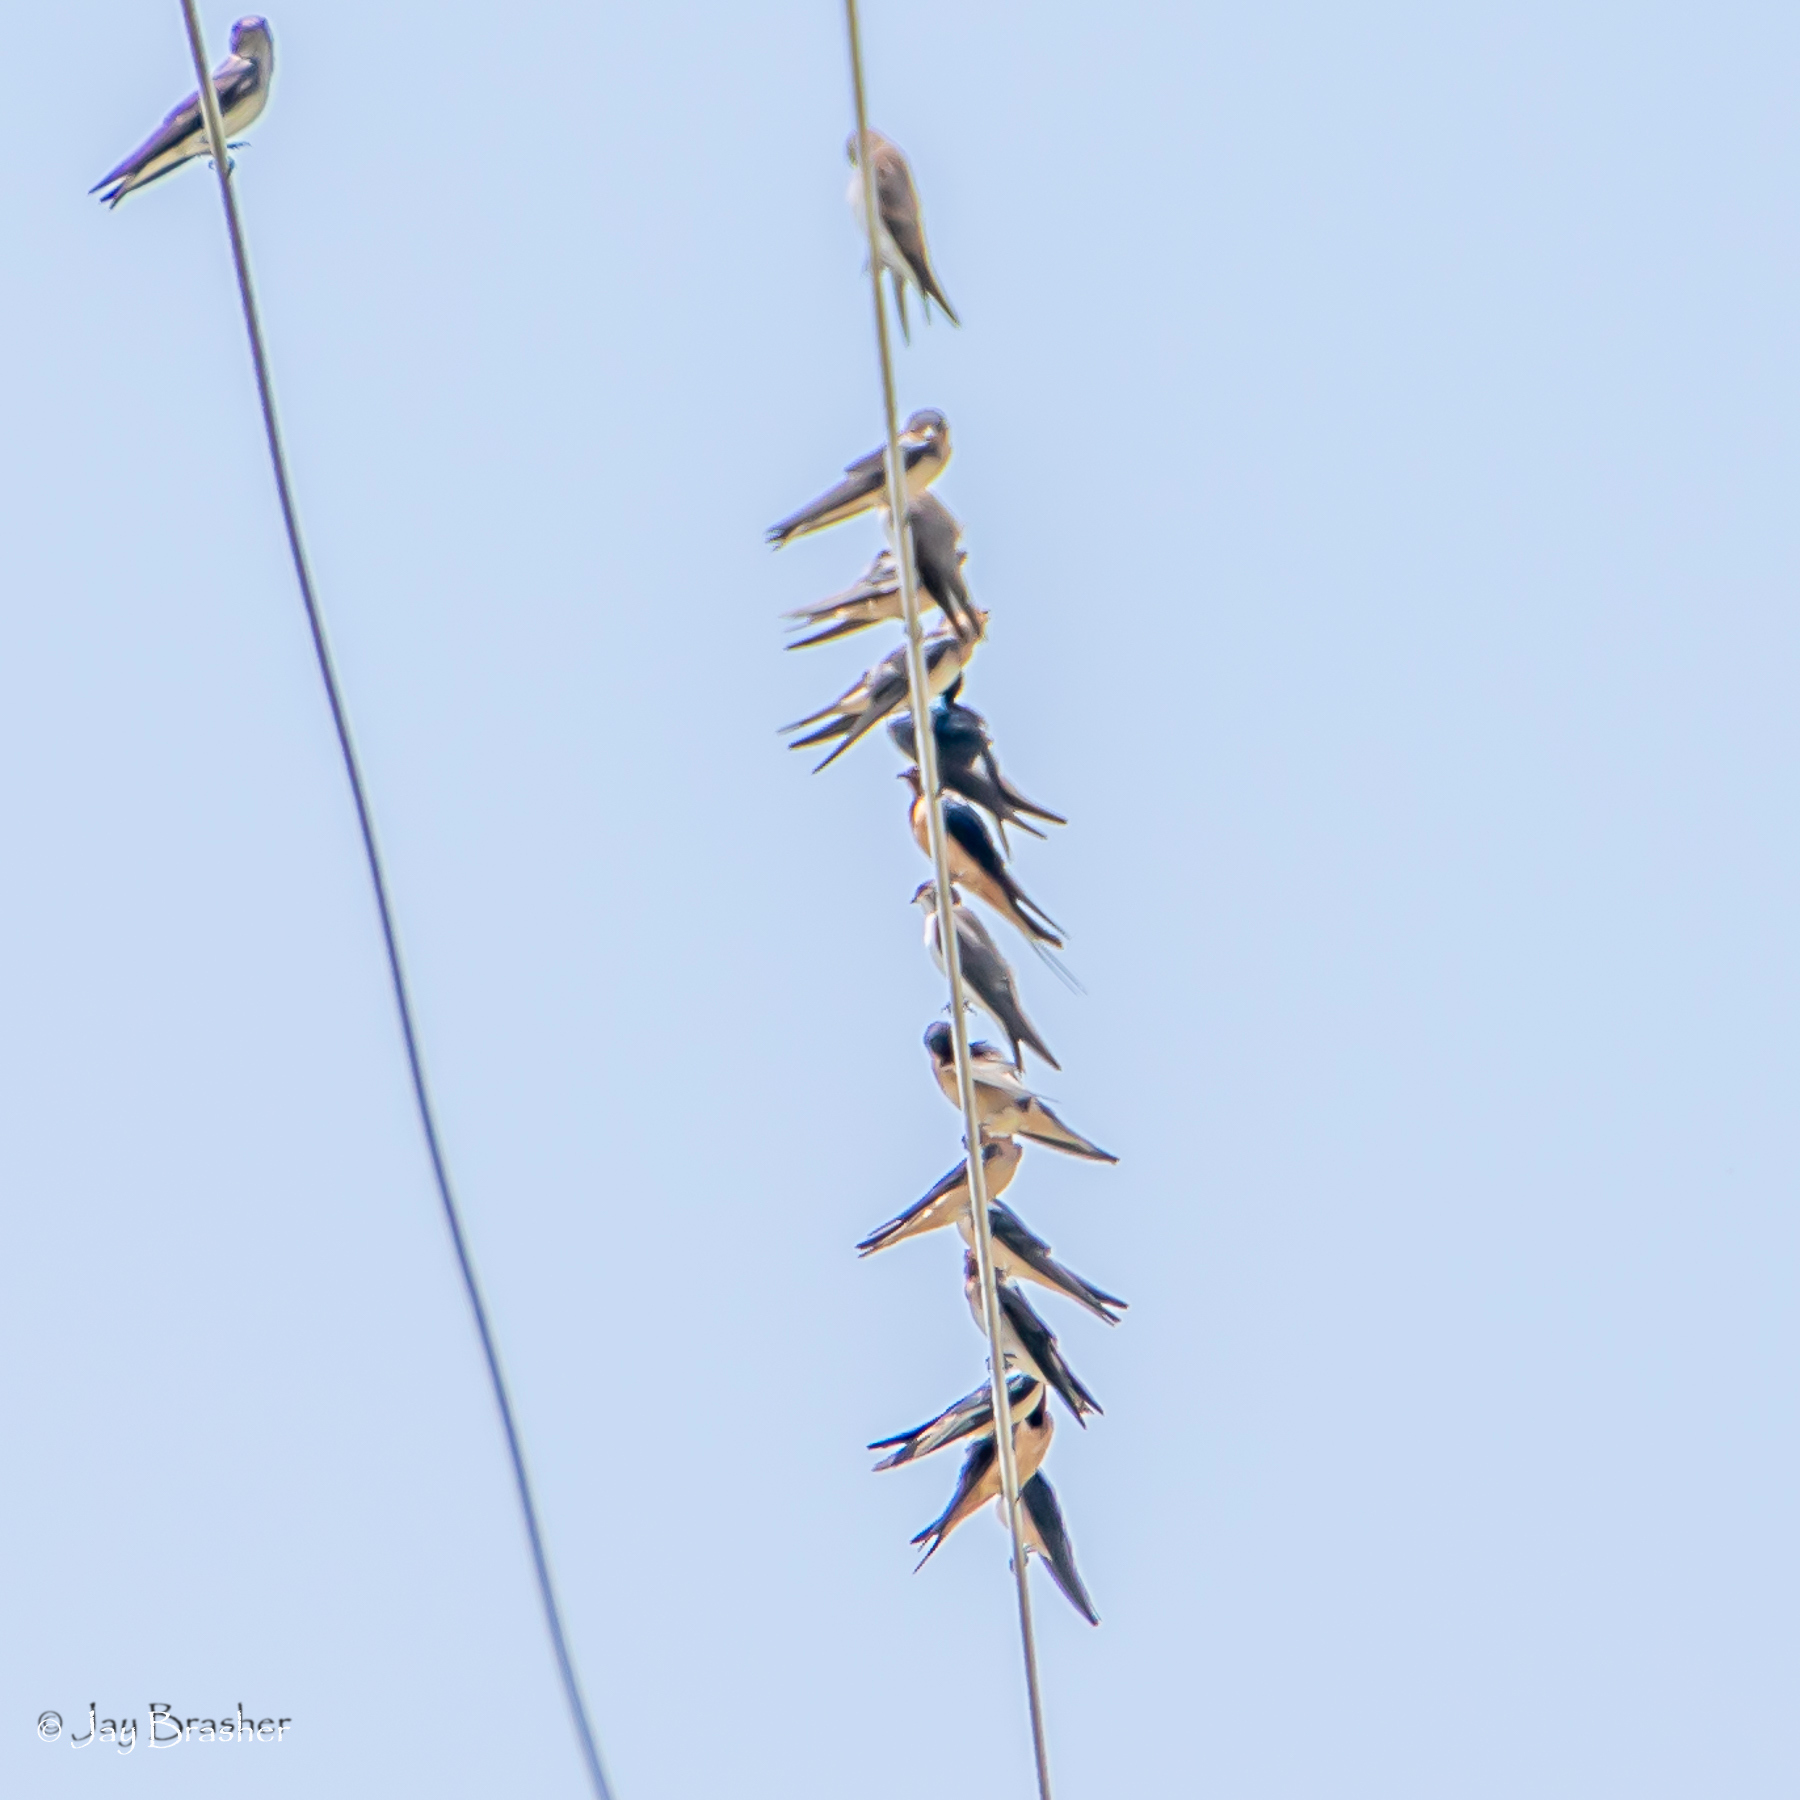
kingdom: Animalia
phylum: Chordata
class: Aves
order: Passeriformes
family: Hirundinidae
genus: Hirundo
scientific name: Hirundo rustica
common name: Barn swallow
